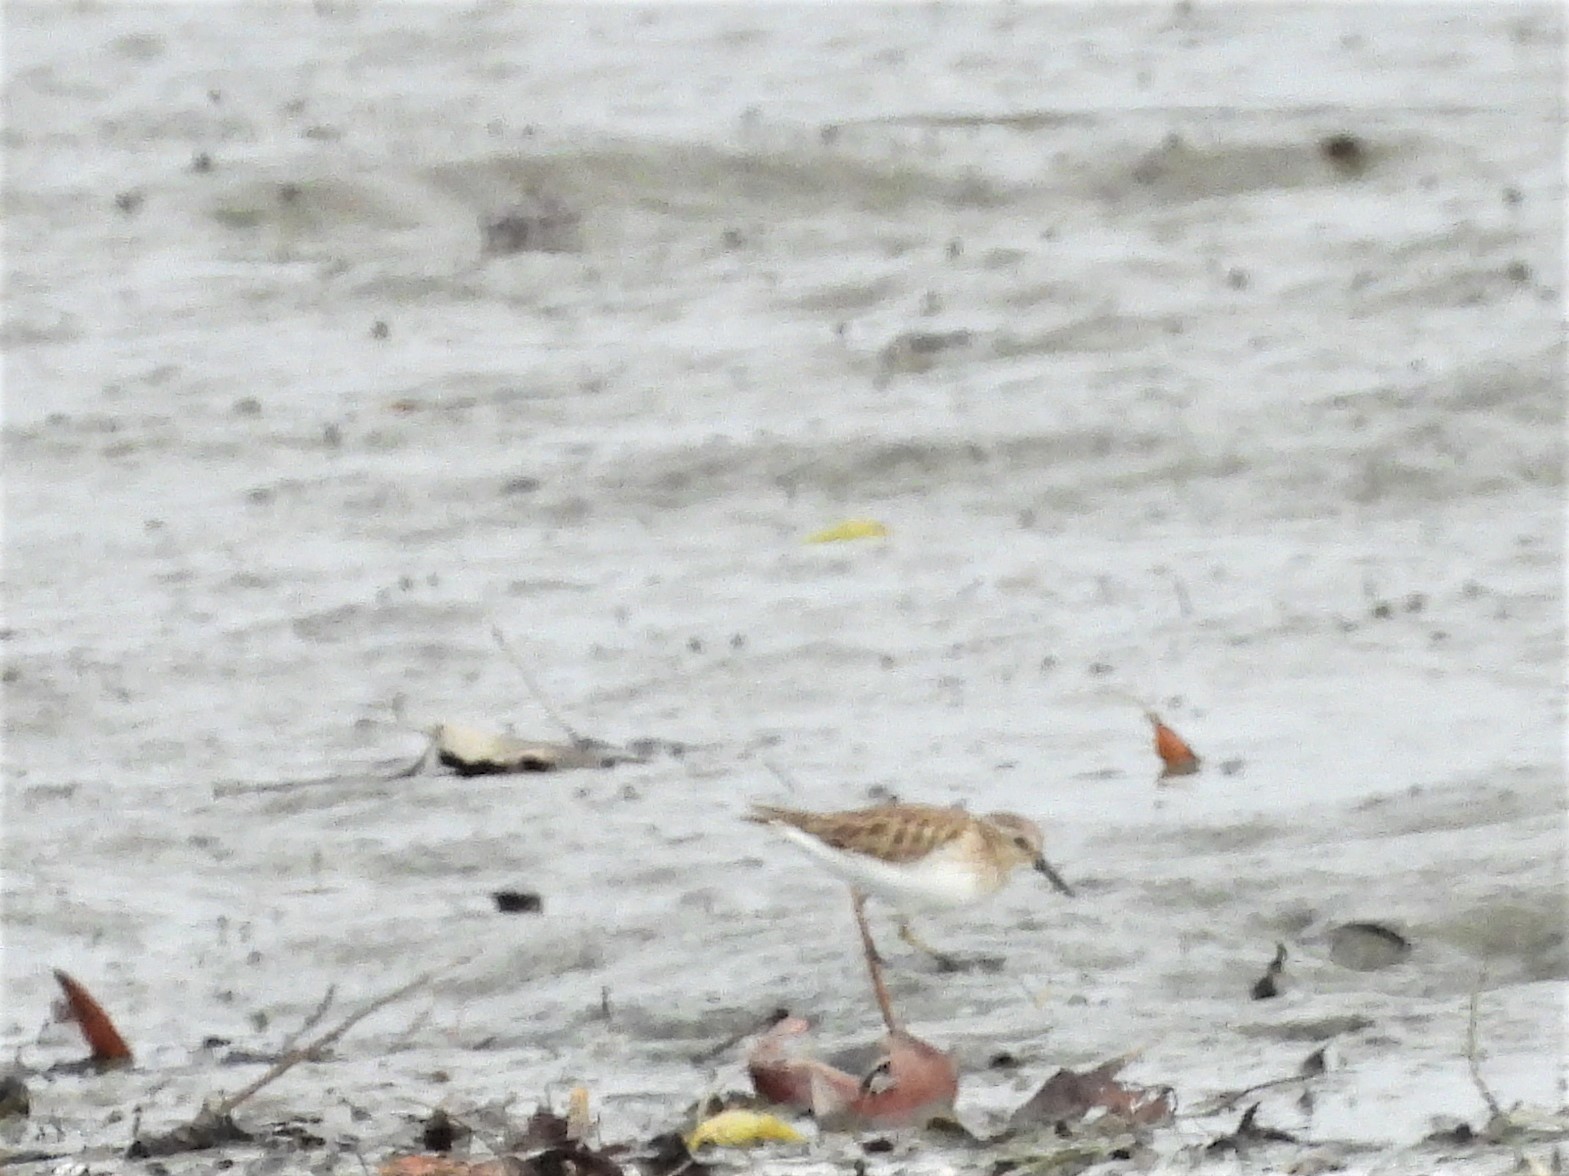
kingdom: Animalia
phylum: Chordata
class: Aves
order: Charadriiformes
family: Scolopacidae
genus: Calidris
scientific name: Calidris minutilla
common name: Least sandpiper
